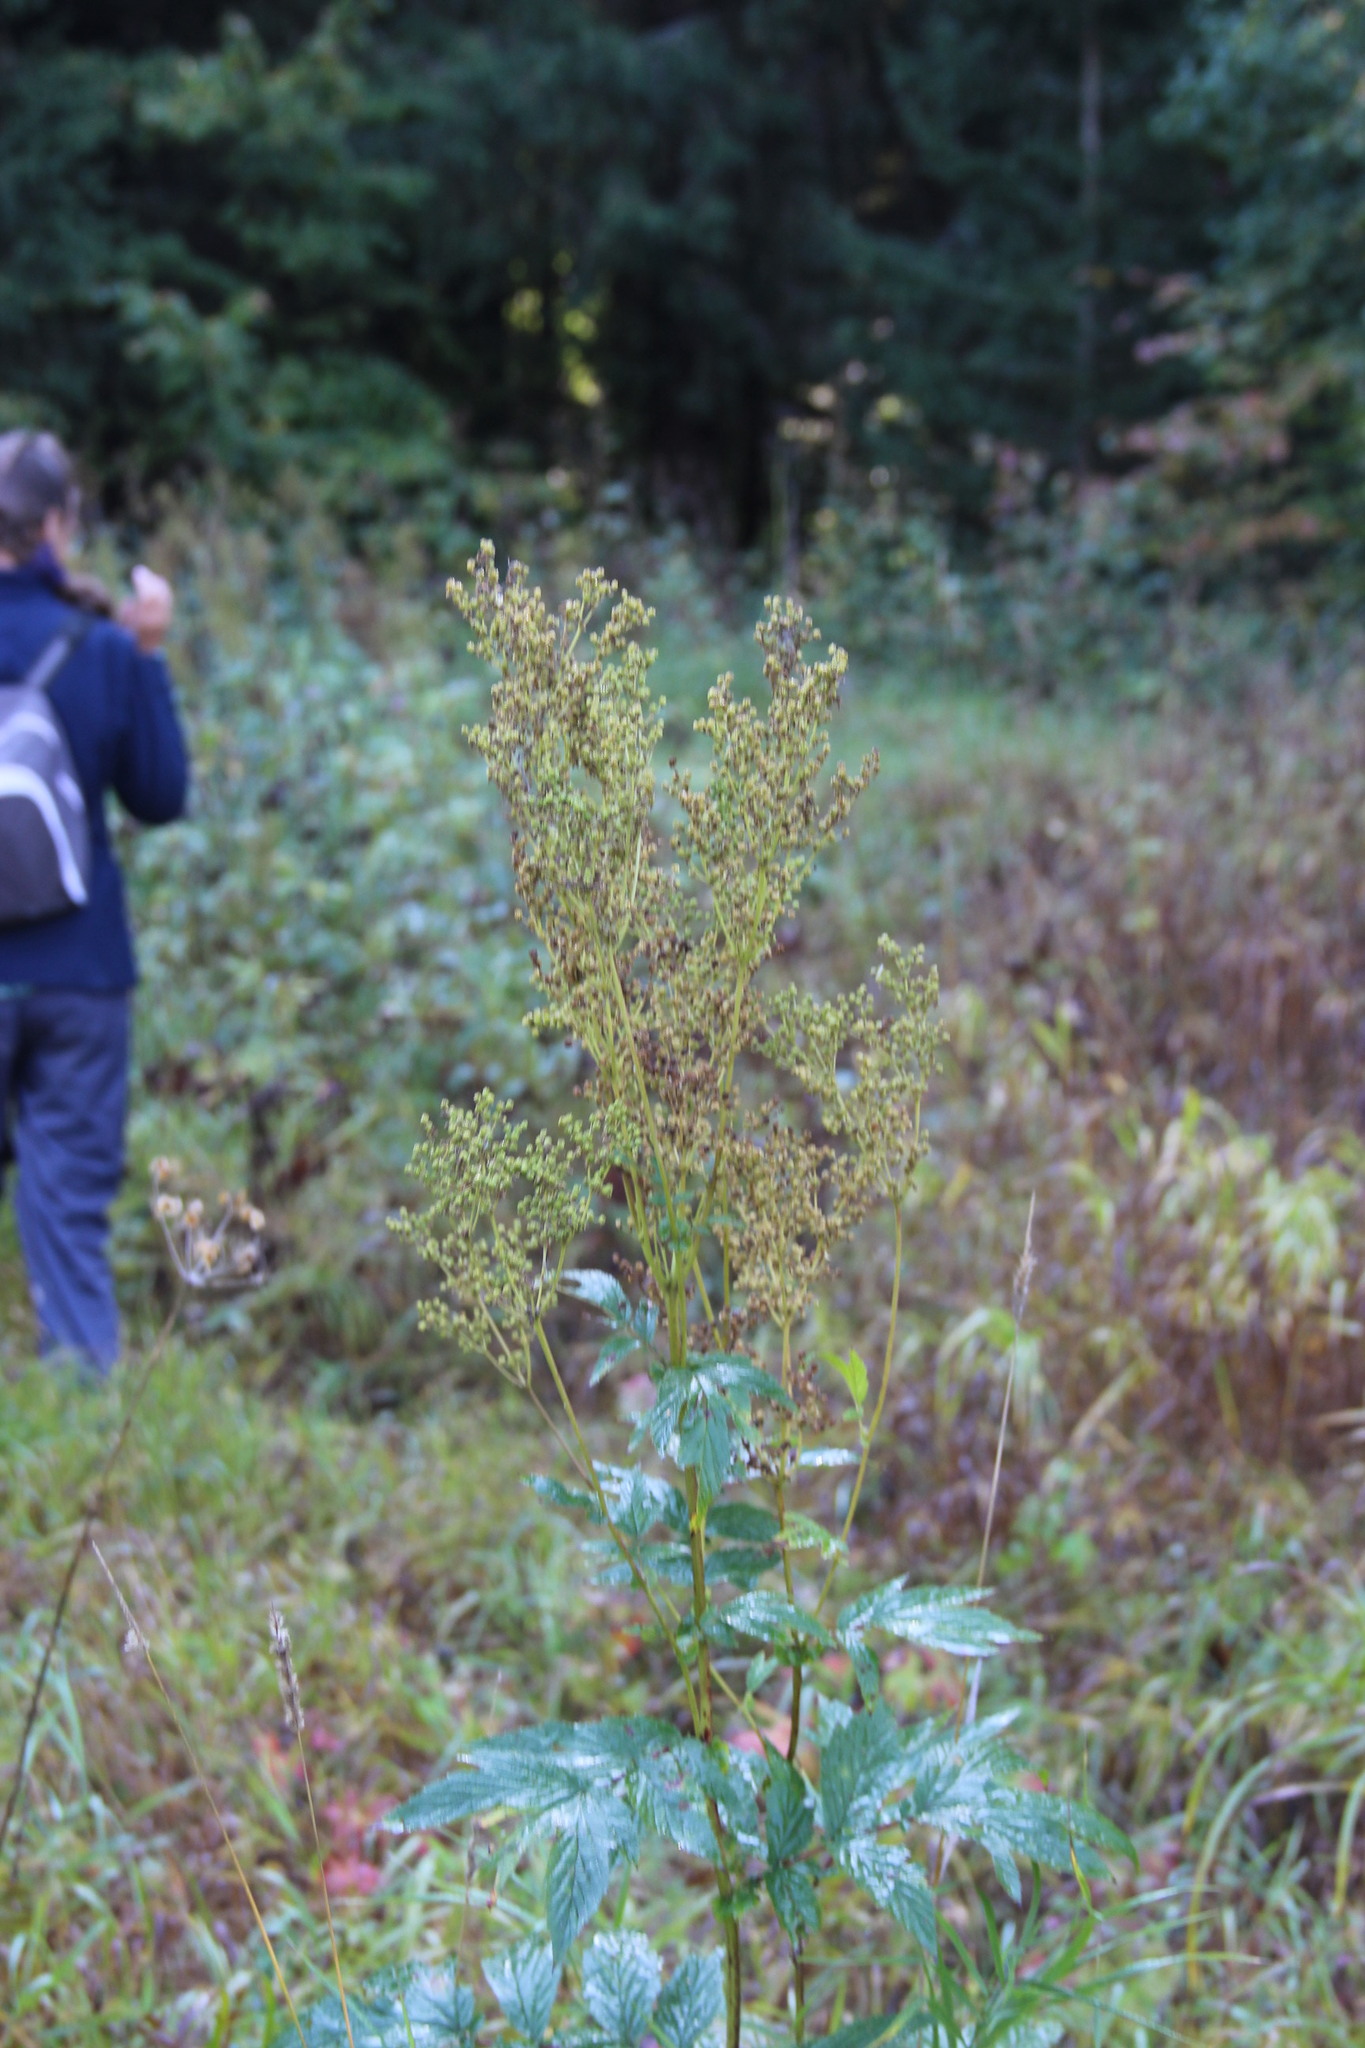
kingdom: Plantae
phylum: Tracheophyta
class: Magnoliopsida
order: Rosales
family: Rosaceae
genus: Filipendula
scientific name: Filipendula ulmaria
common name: Meadowsweet
